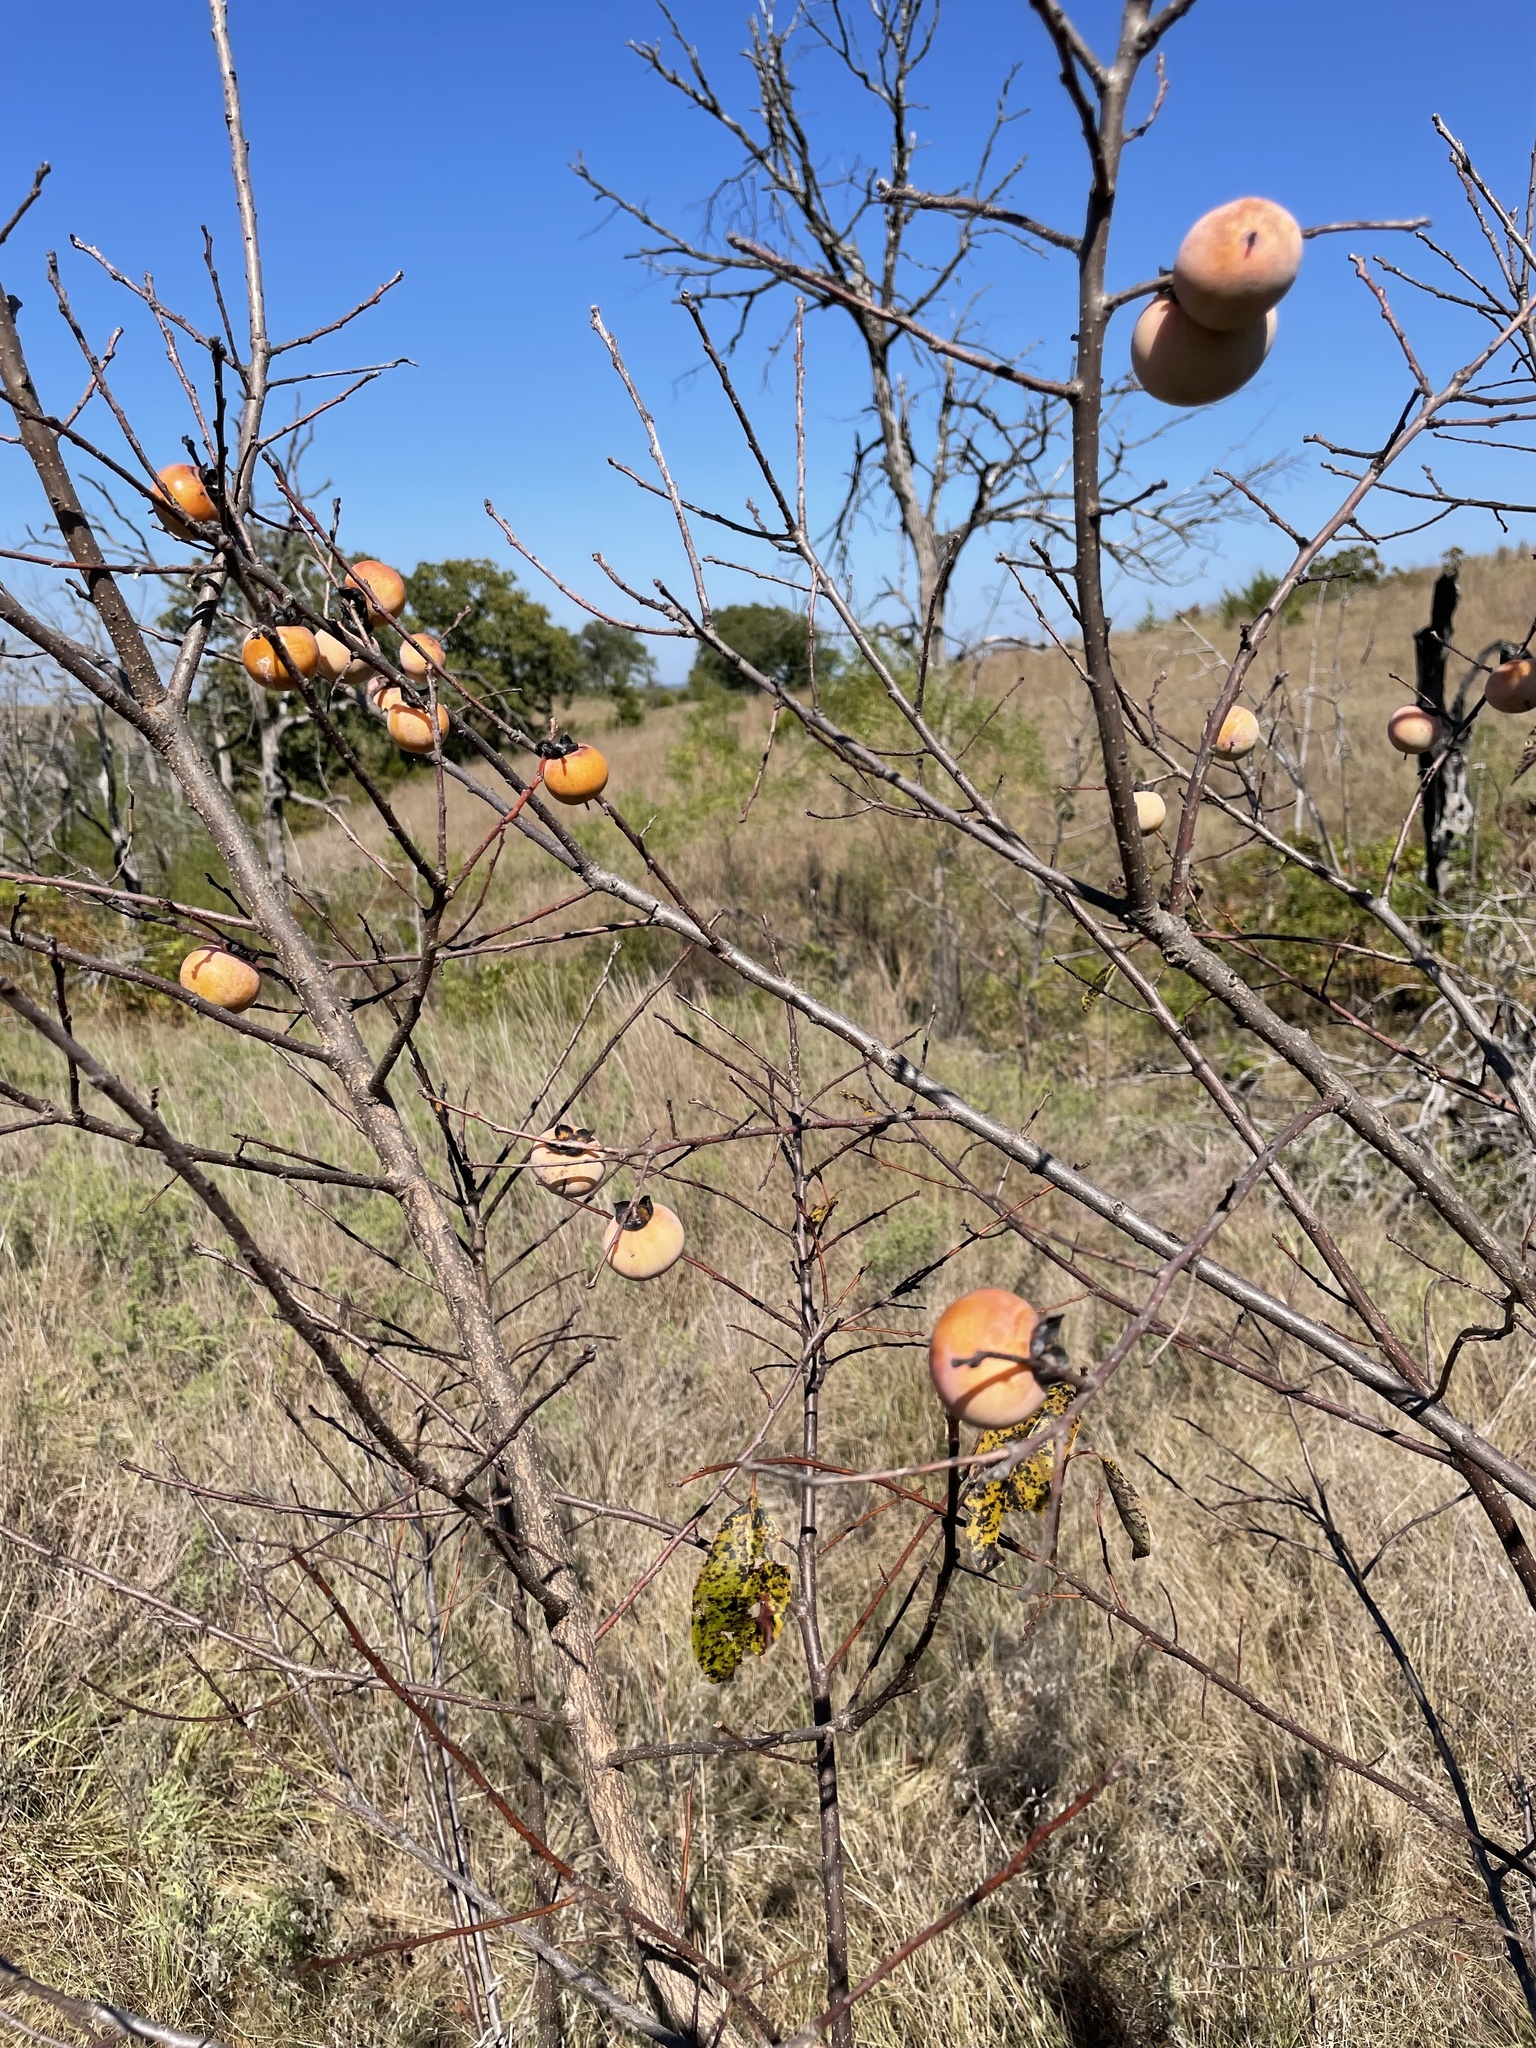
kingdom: Plantae
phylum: Tracheophyta
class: Magnoliopsida
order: Ericales
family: Ebenaceae
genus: Diospyros
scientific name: Diospyros virginiana
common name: Persimmon
